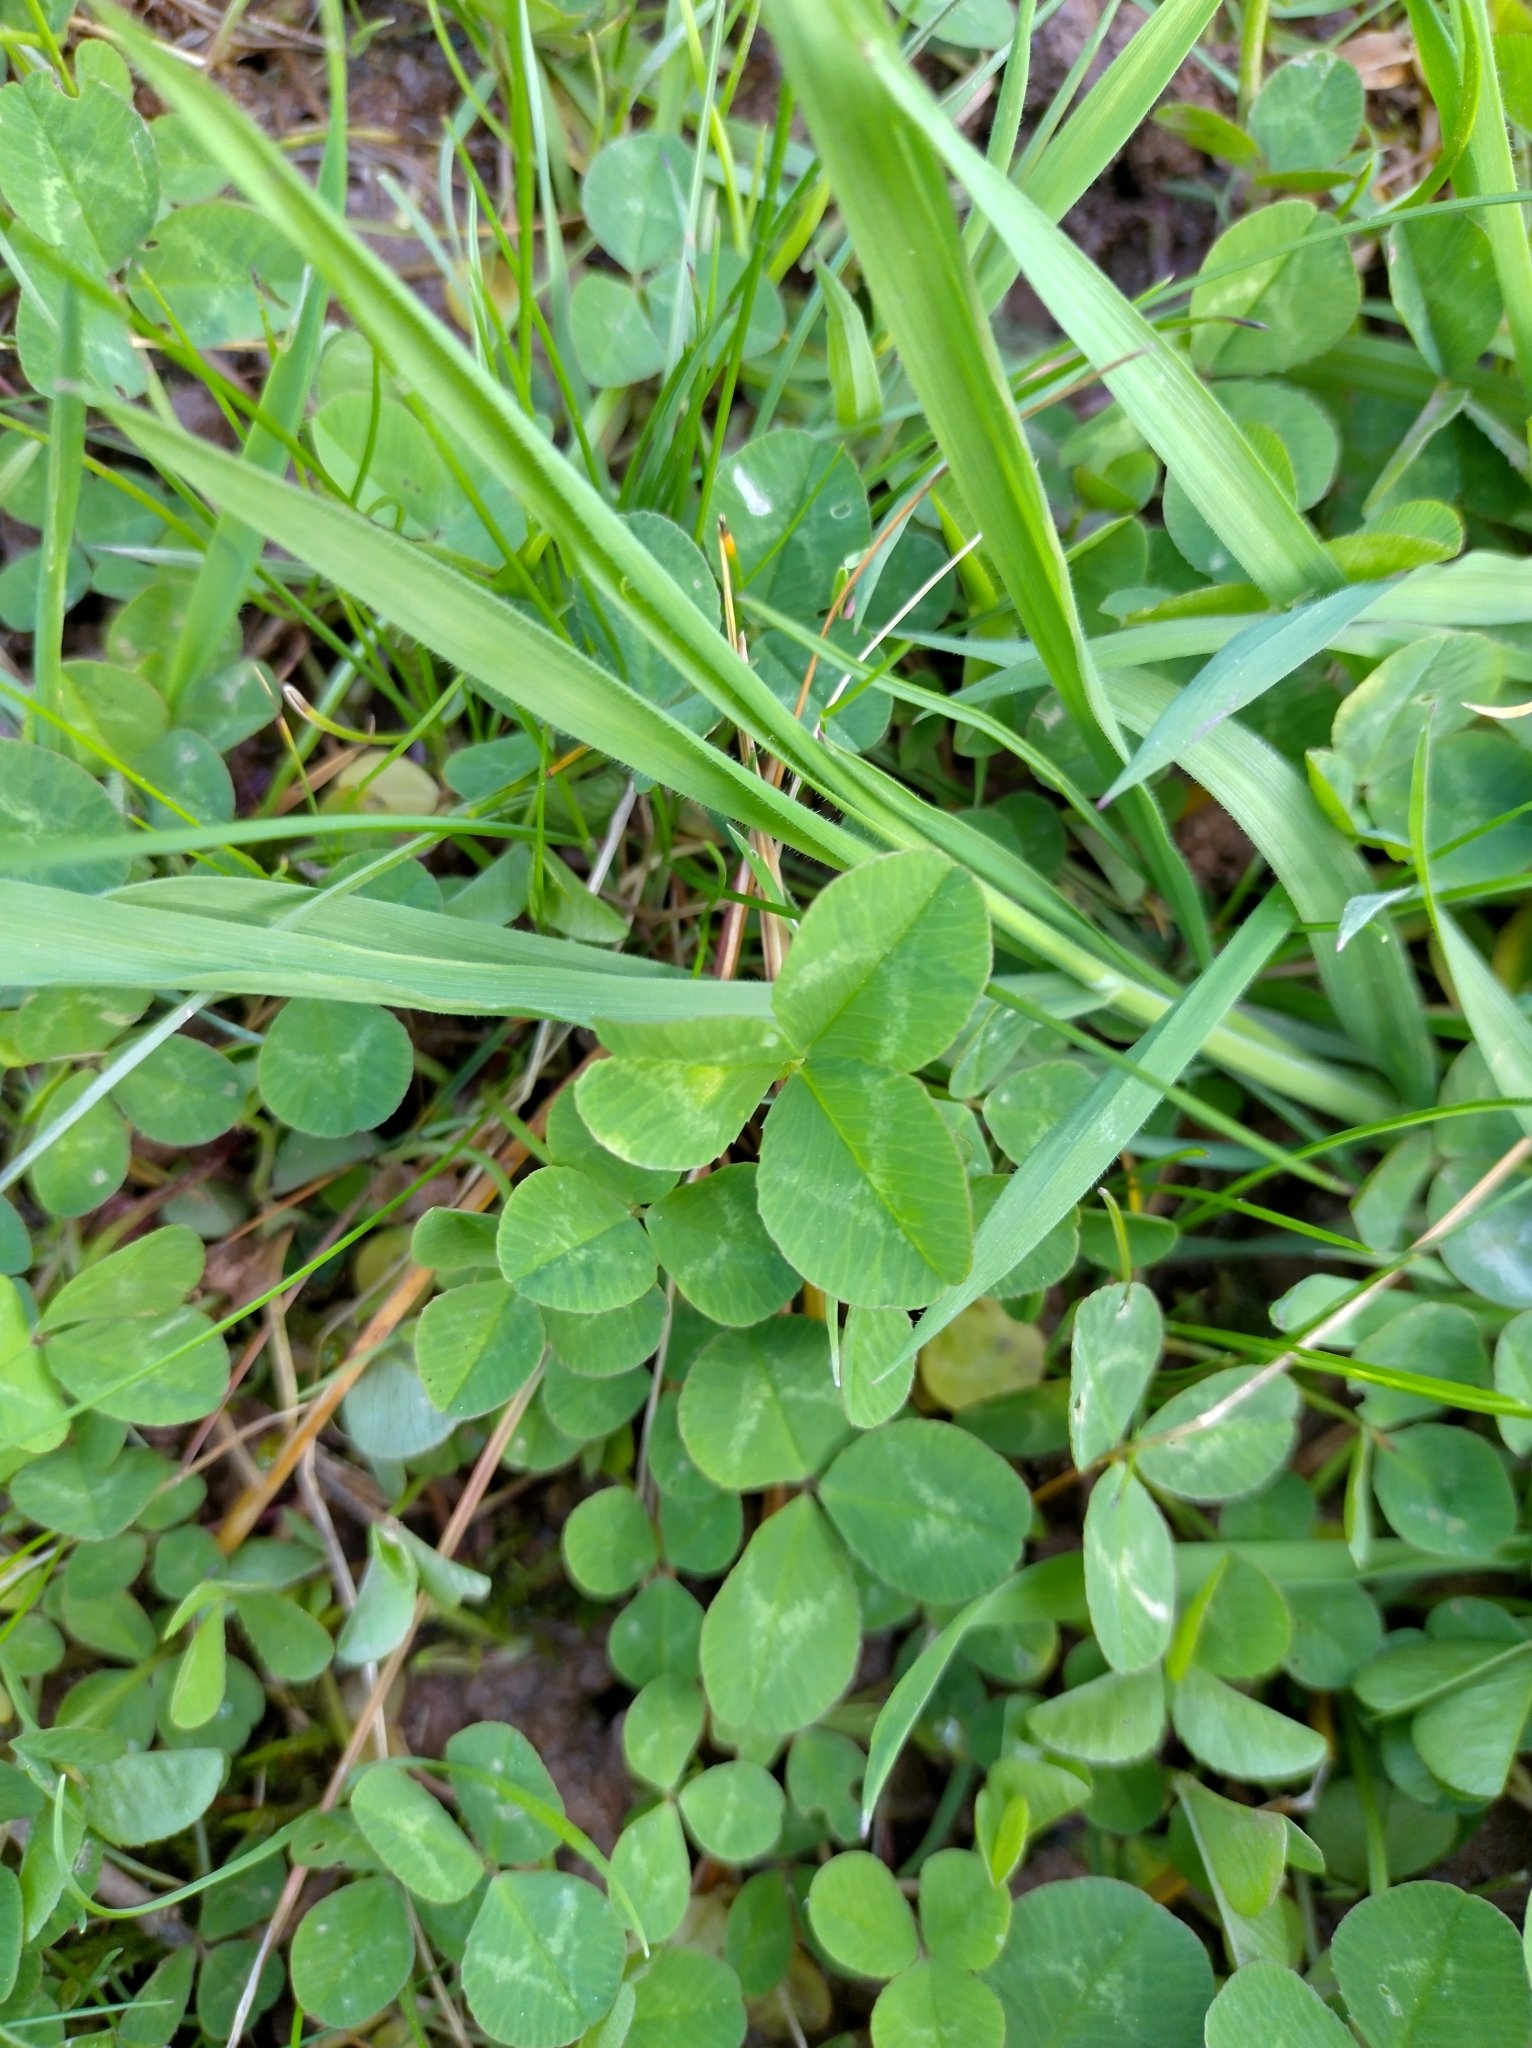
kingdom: Plantae
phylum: Tracheophyta
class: Magnoliopsida
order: Fabales
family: Fabaceae
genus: Trifolium
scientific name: Trifolium repens
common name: White clover
